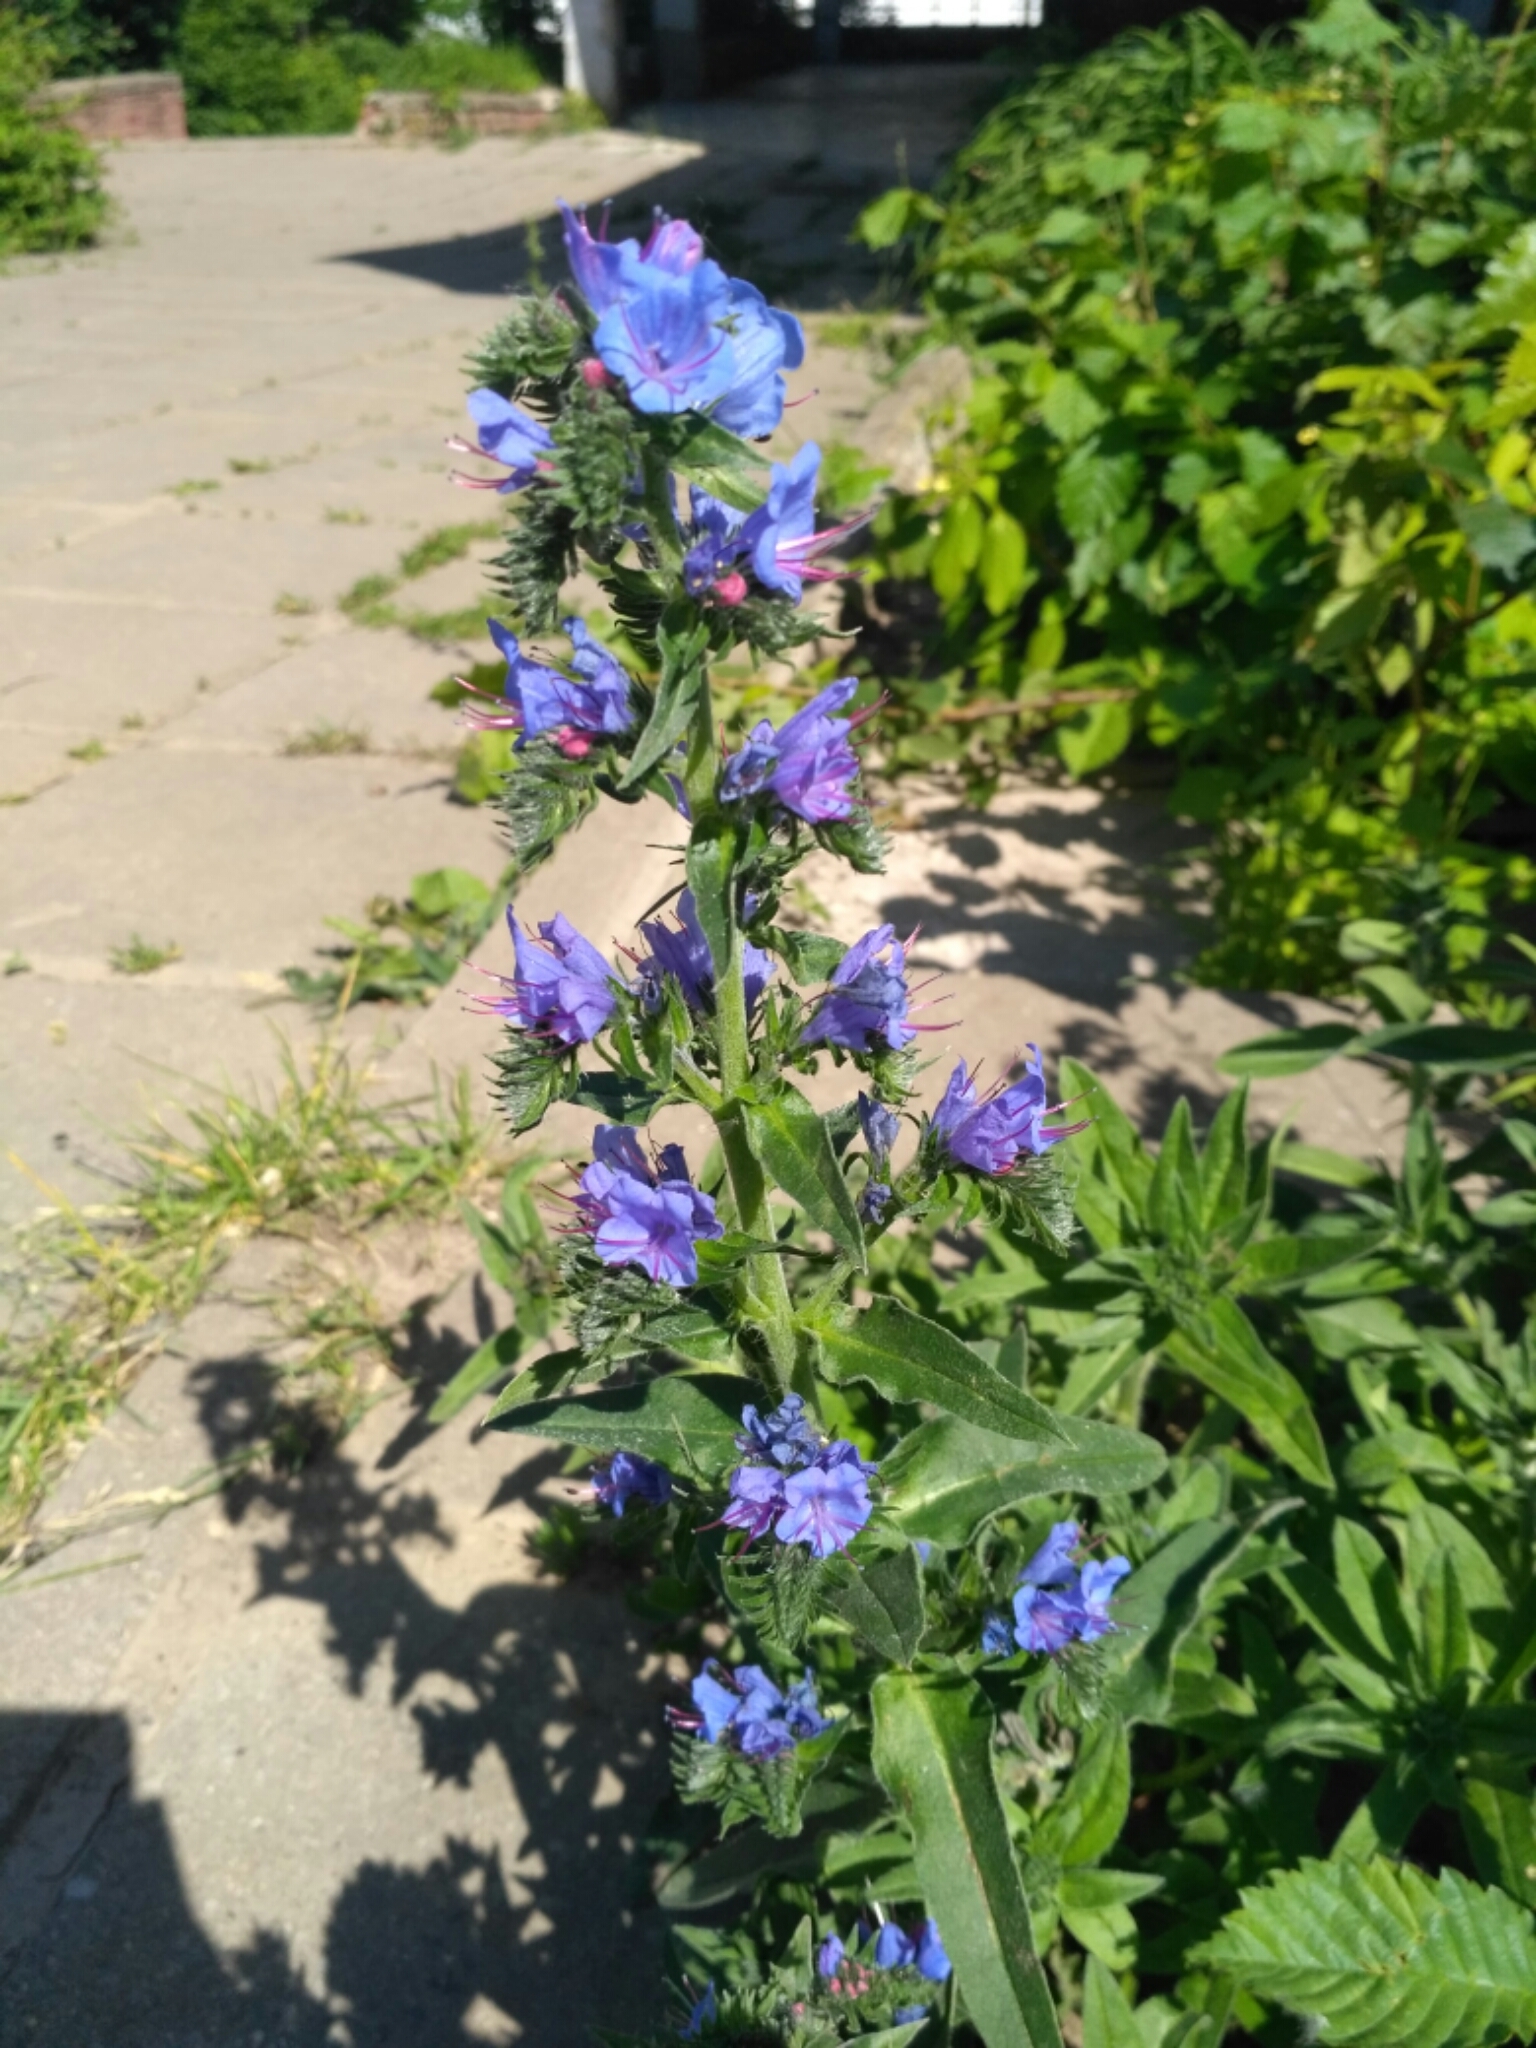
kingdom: Plantae
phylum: Tracheophyta
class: Magnoliopsida
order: Boraginales
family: Boraginaceae
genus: Echium
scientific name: Echium vulgare
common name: Common viper's bugloss
